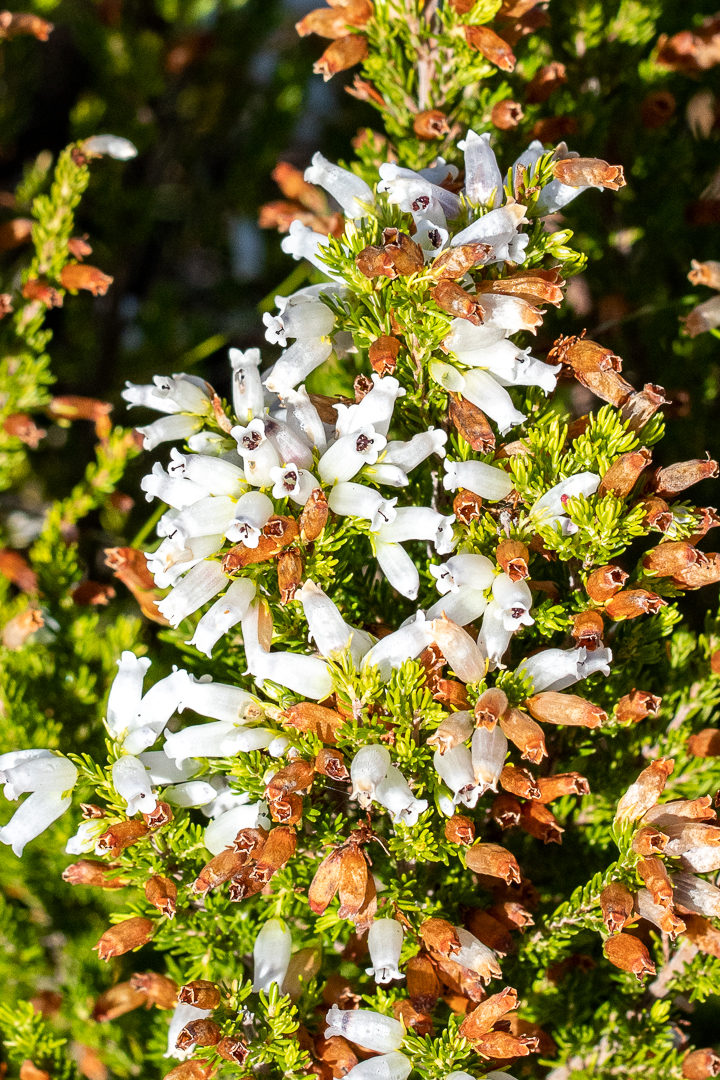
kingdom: Plantae
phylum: Tracheophyta
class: Magnoliopsida
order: Ericales
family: Ericaceae
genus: Erica
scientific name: Erica sitiens
